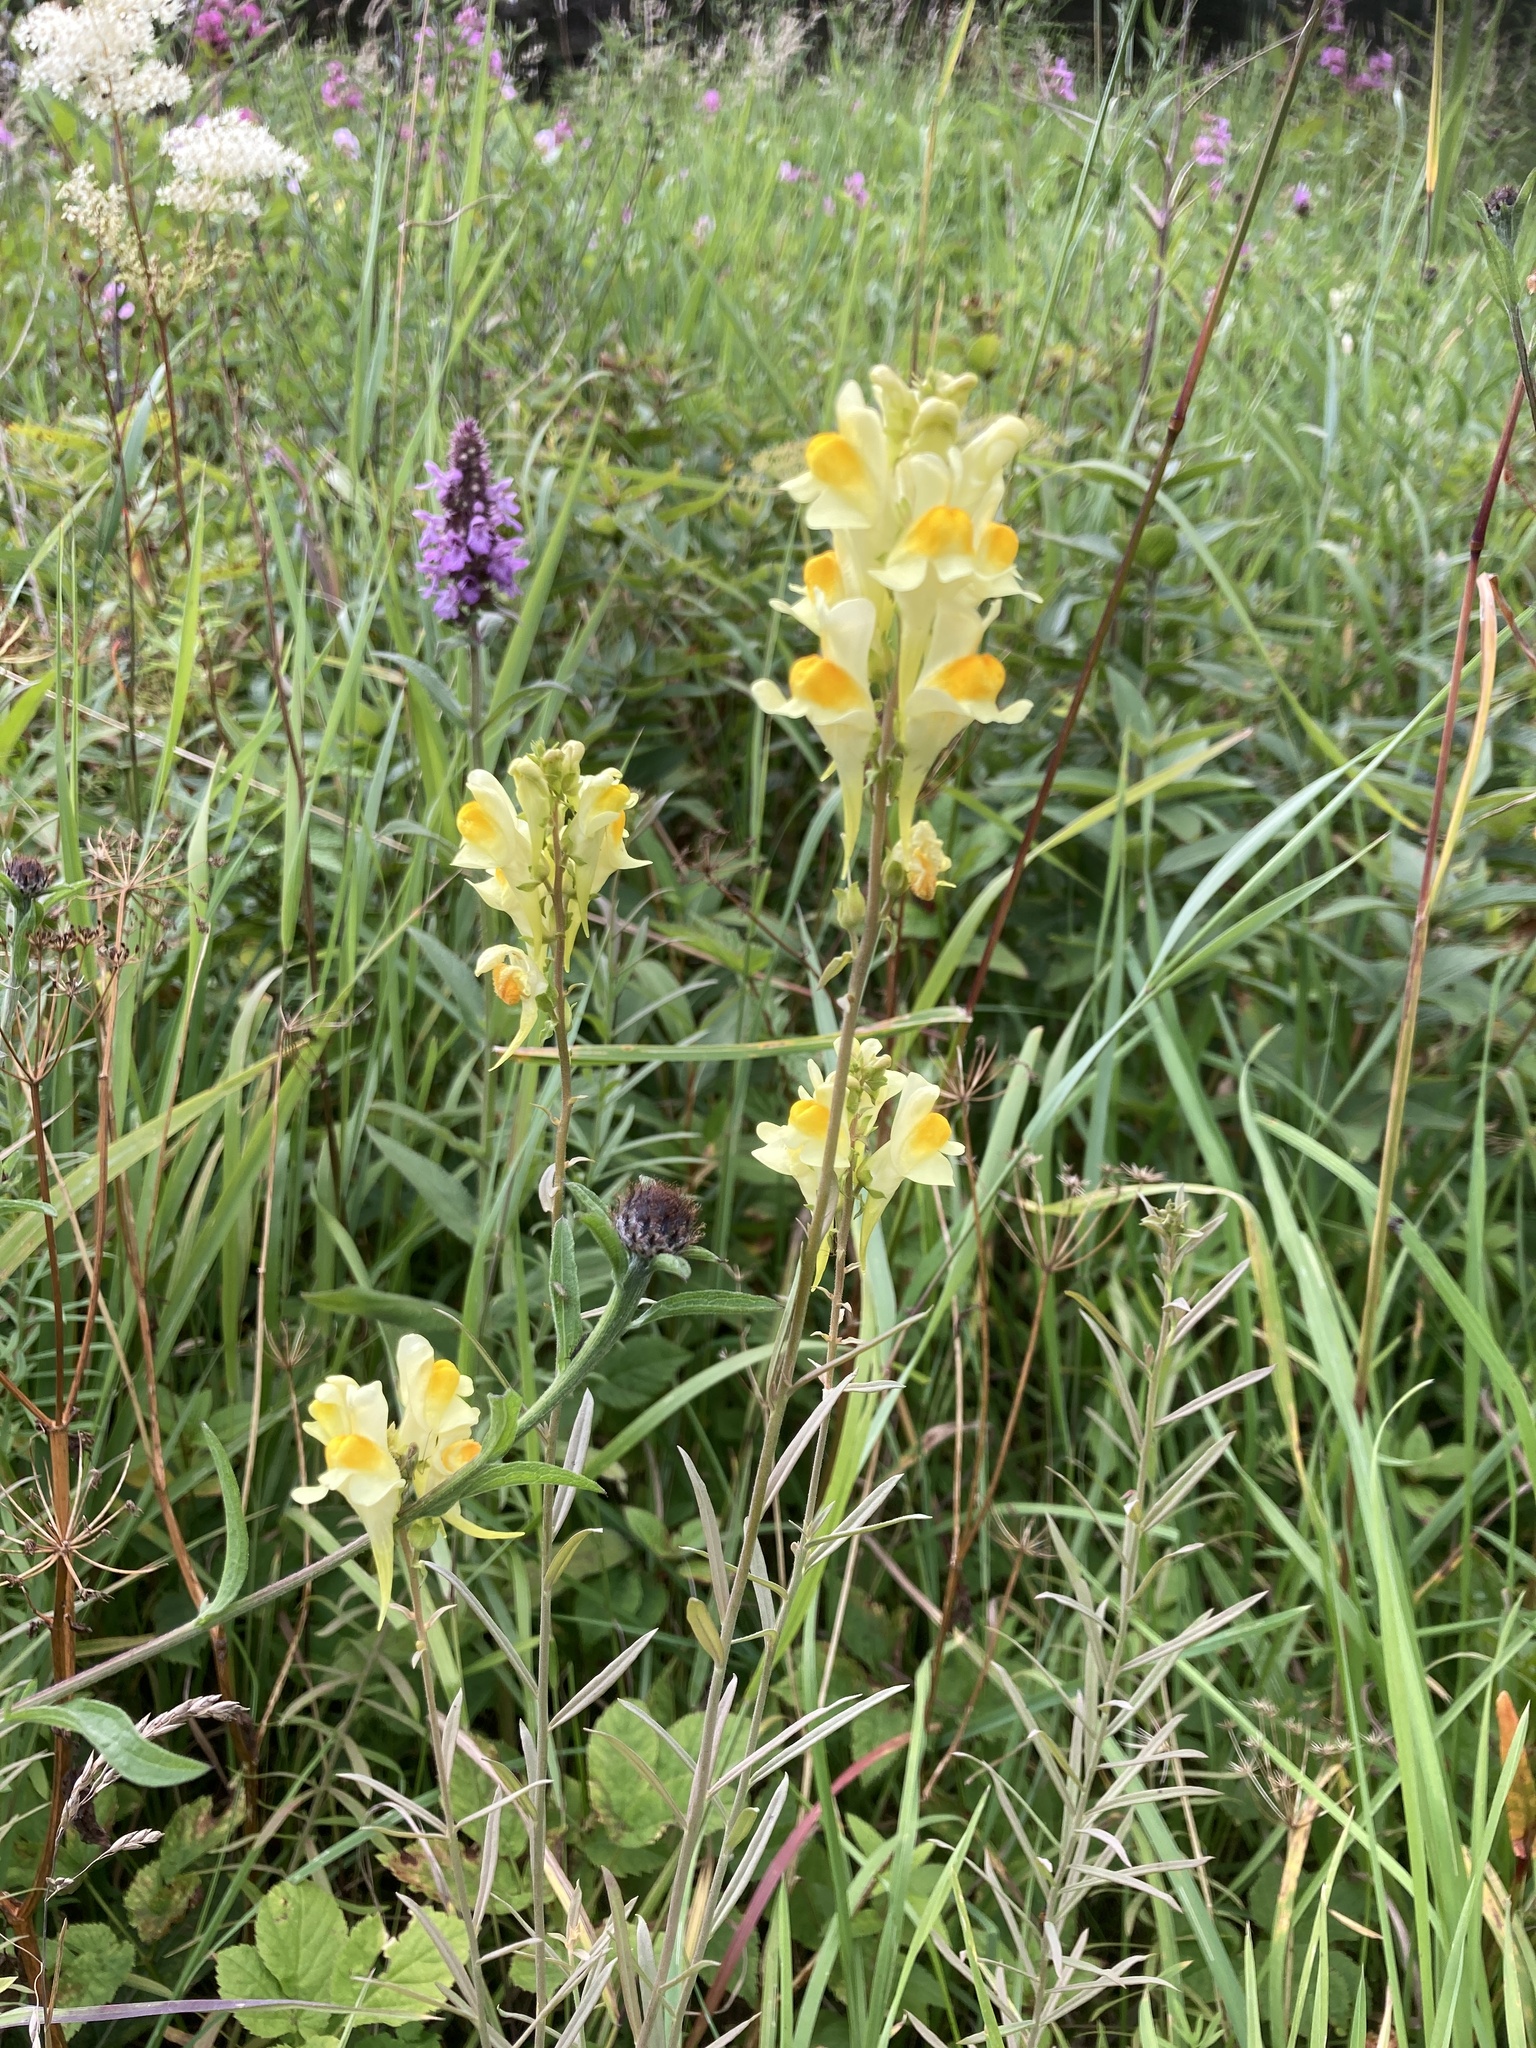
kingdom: Plantae
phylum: Tracheophyta
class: Magnoliopsida
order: Lamiales
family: Plantaginaceae
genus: Linaria
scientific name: Linaria vulgaris
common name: Butter and eggs
